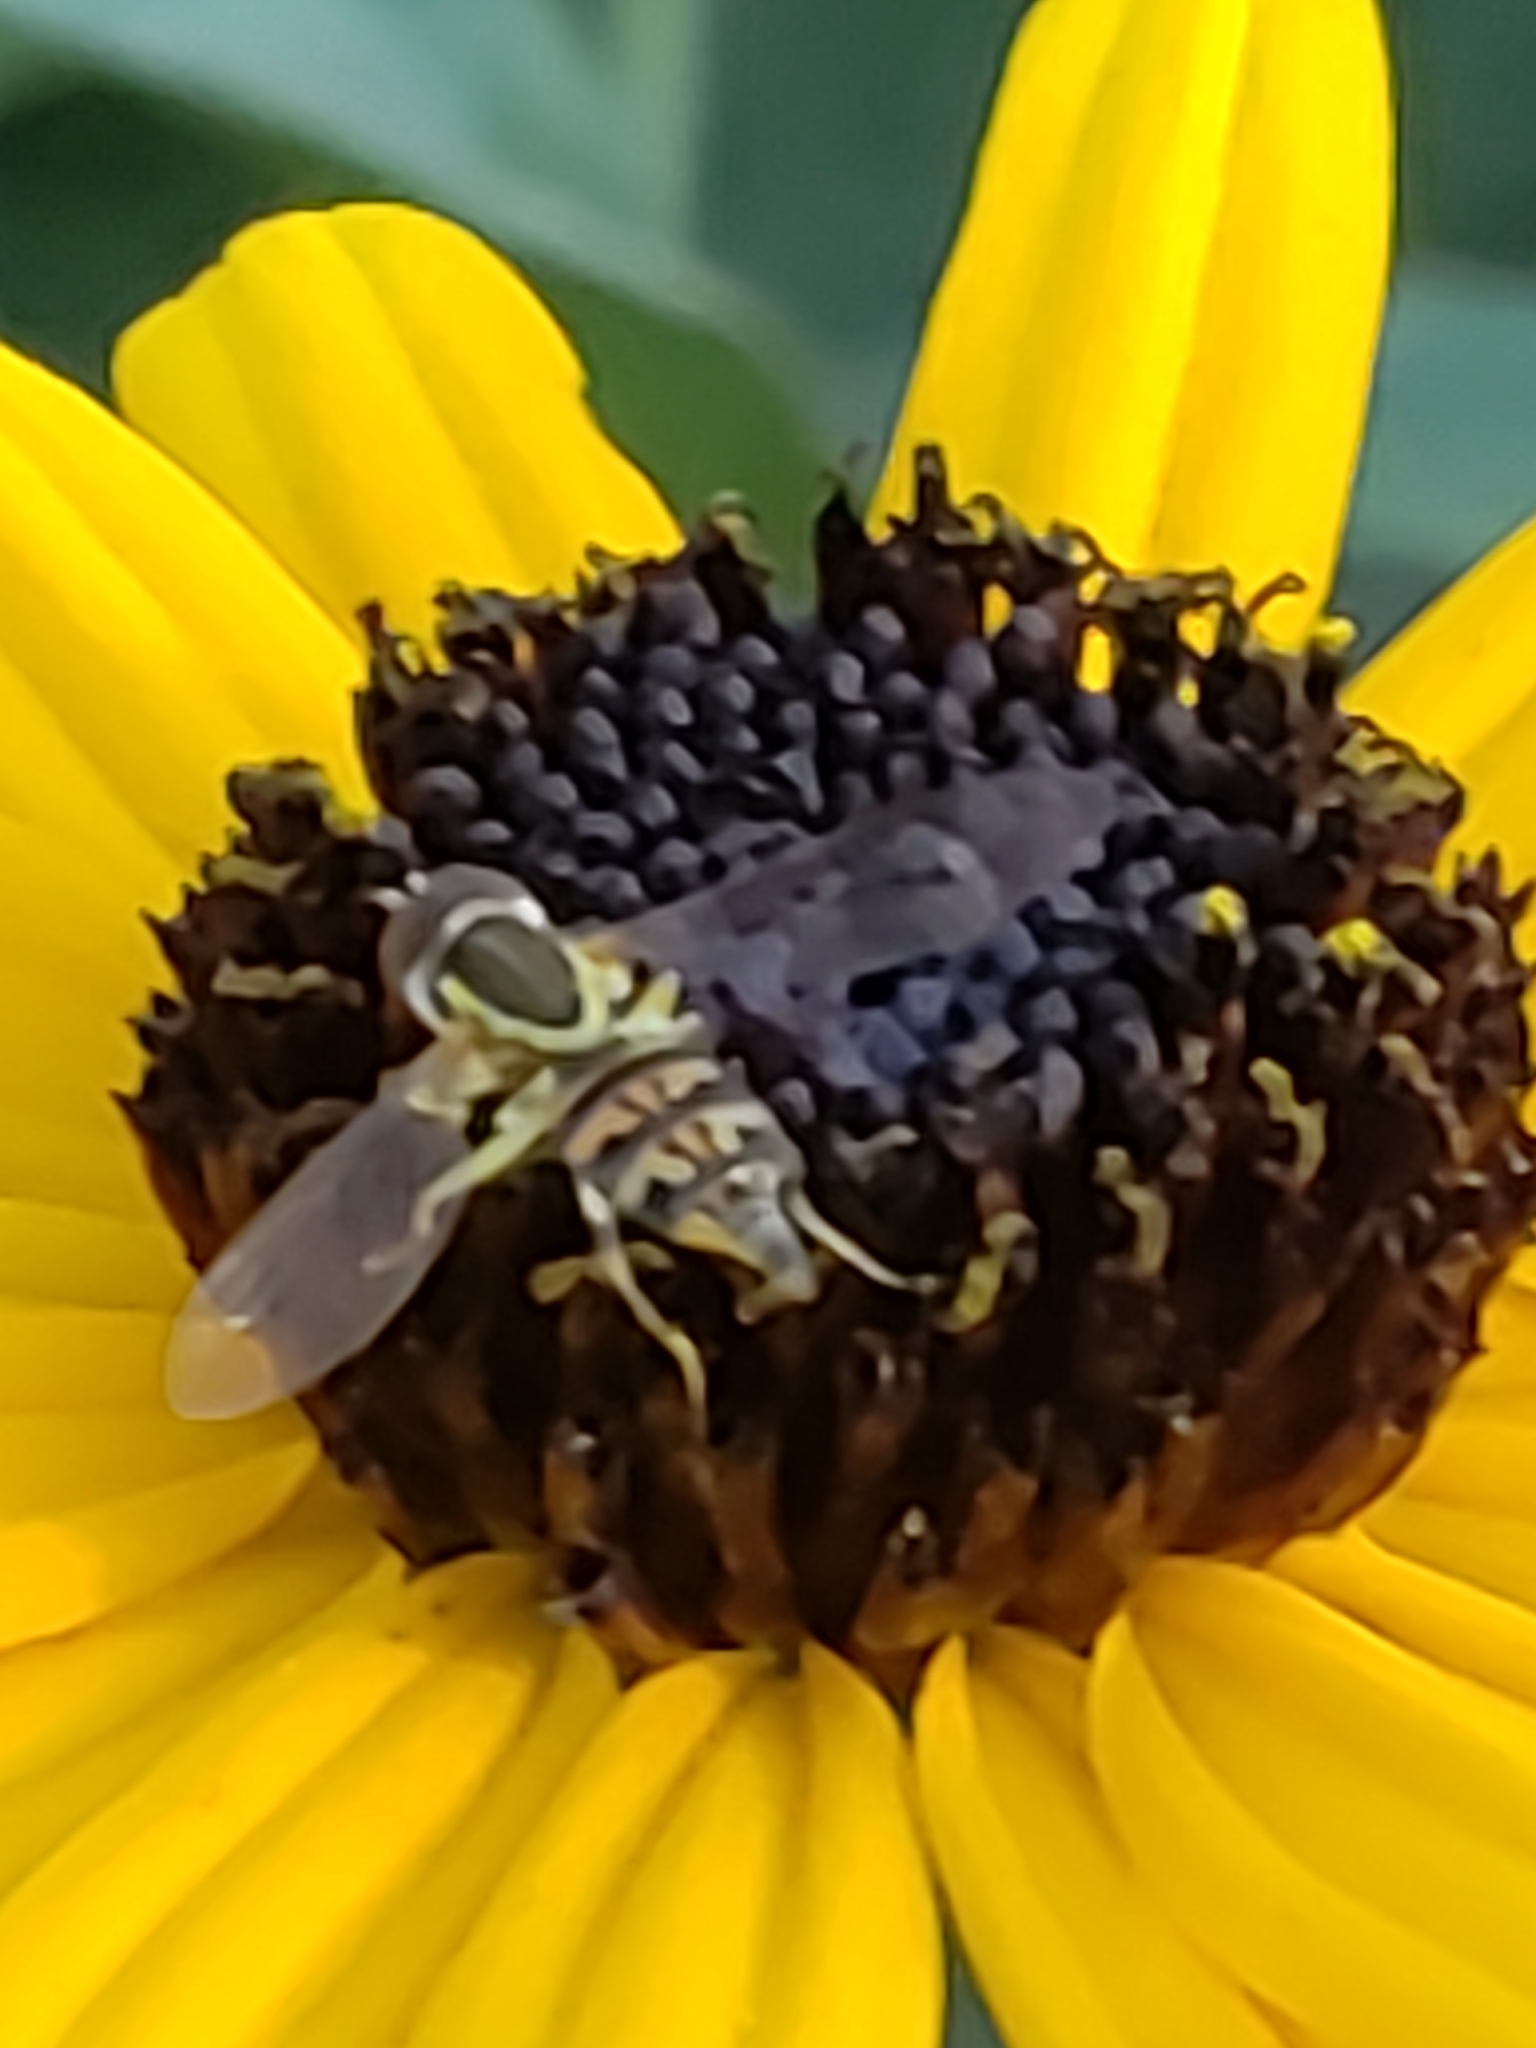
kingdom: Animalia
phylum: Arthropoda
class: Insecta
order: Diptera
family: Syrphidae
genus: Toxomerus
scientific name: Toxomerus geminatus
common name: Eastern calligrapher
